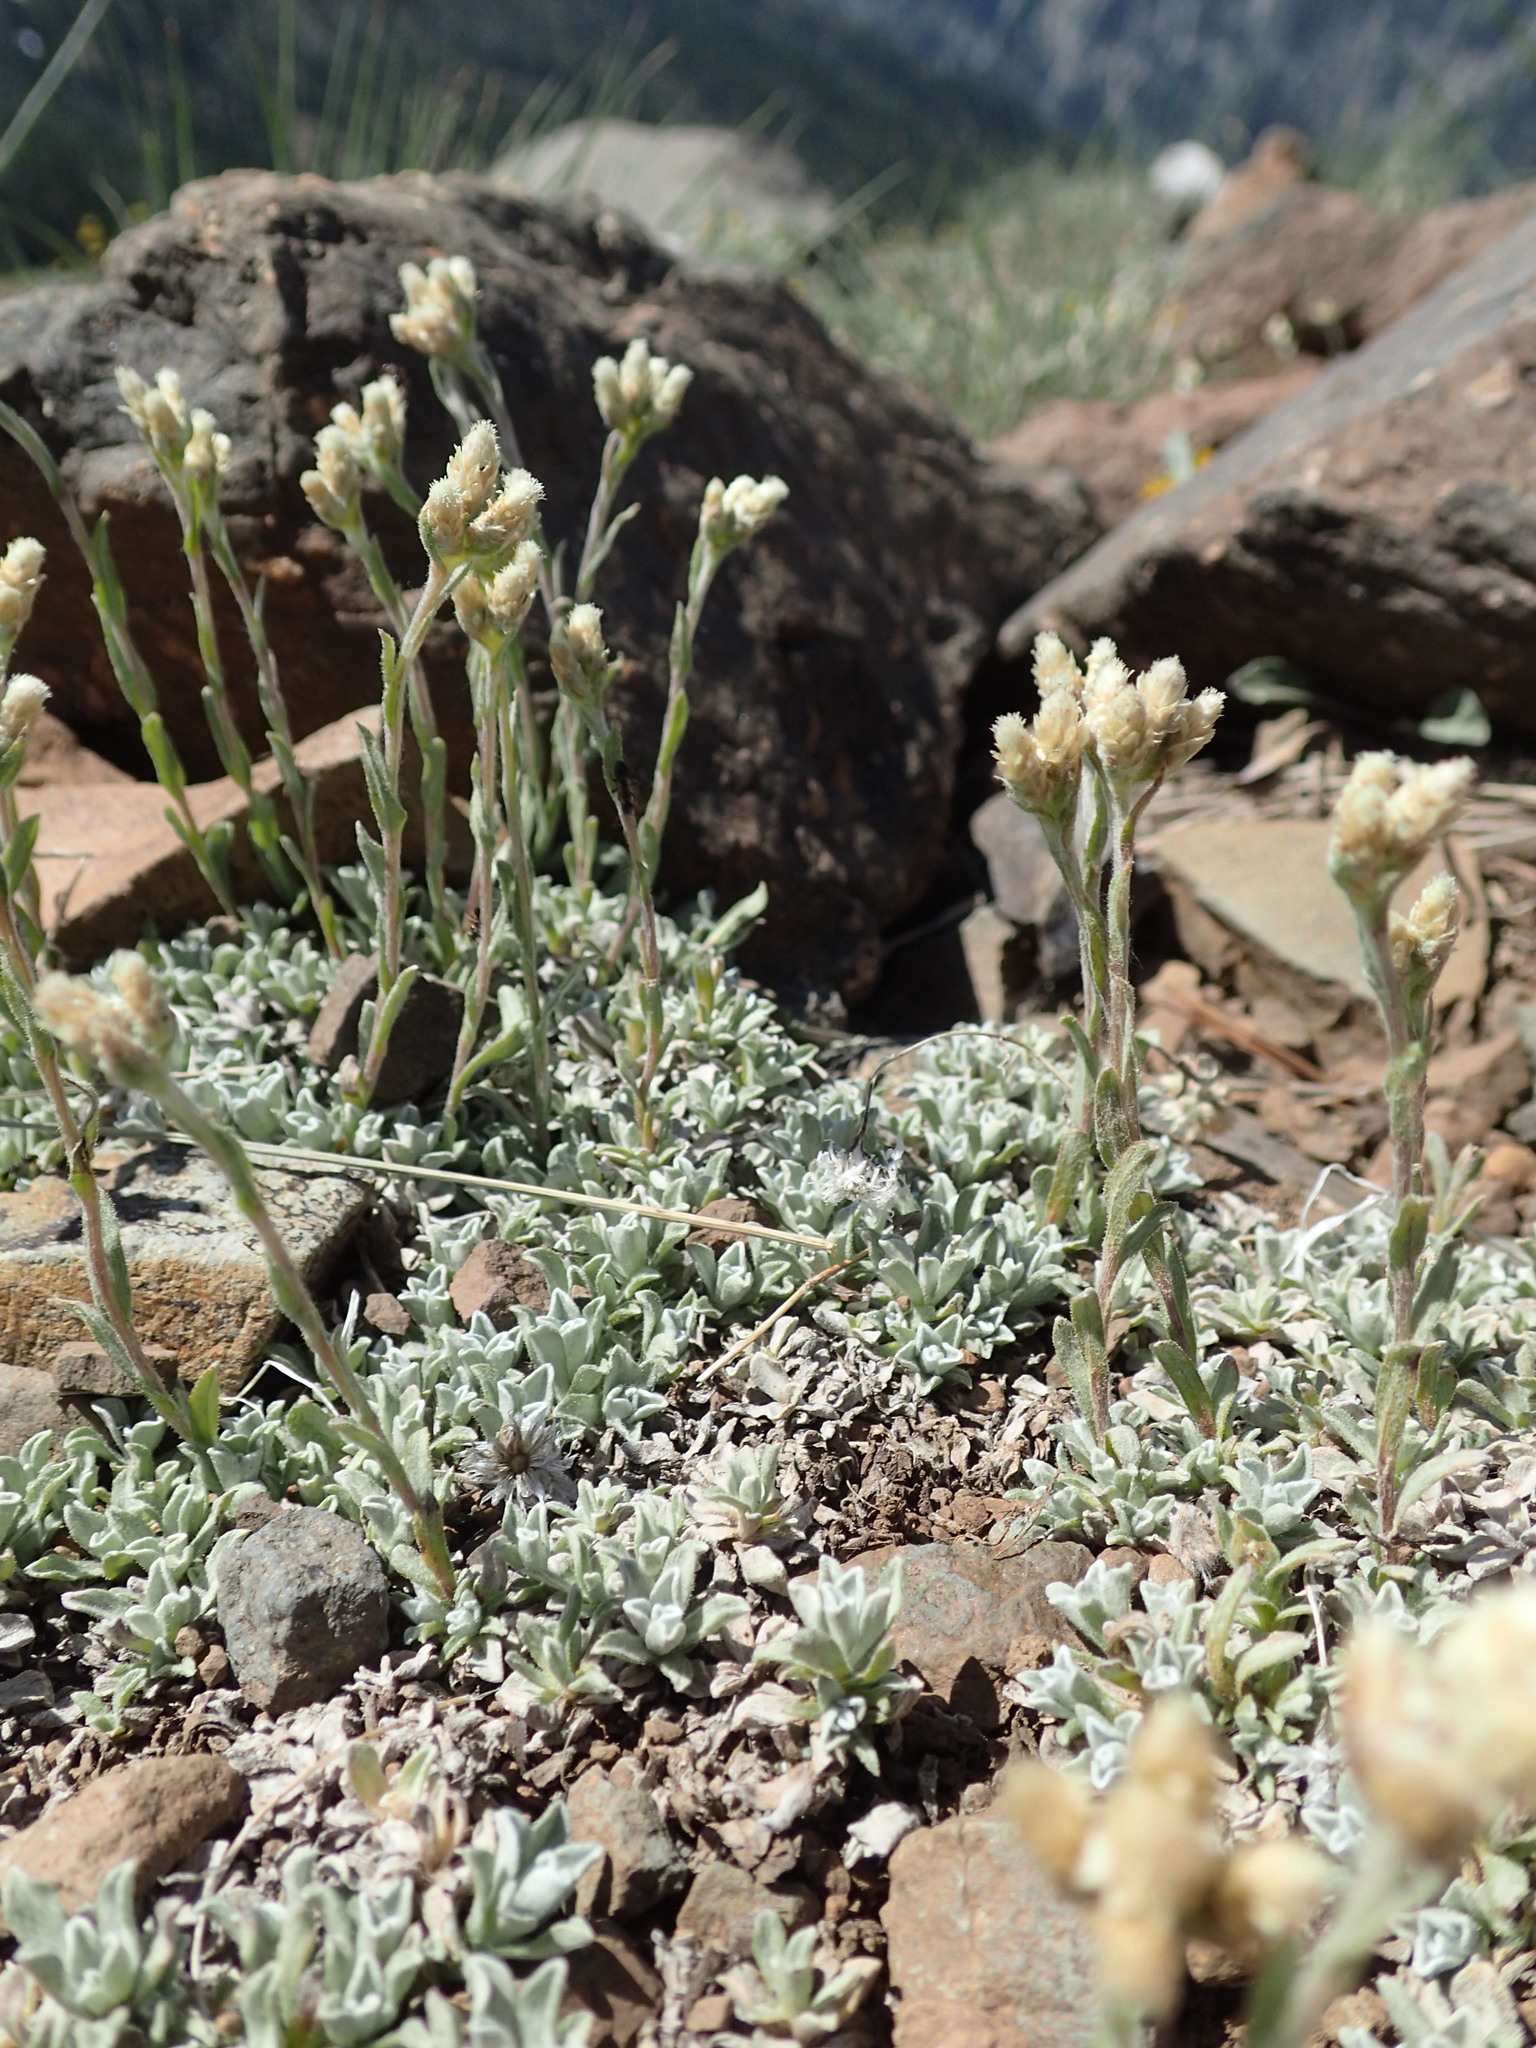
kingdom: Plantae
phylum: Tracheophyta
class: Magnoliopsida
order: Asterales
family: Asteraceae
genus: Antennaria
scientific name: Antennaria microphylla
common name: Littleleaf pussytoes
